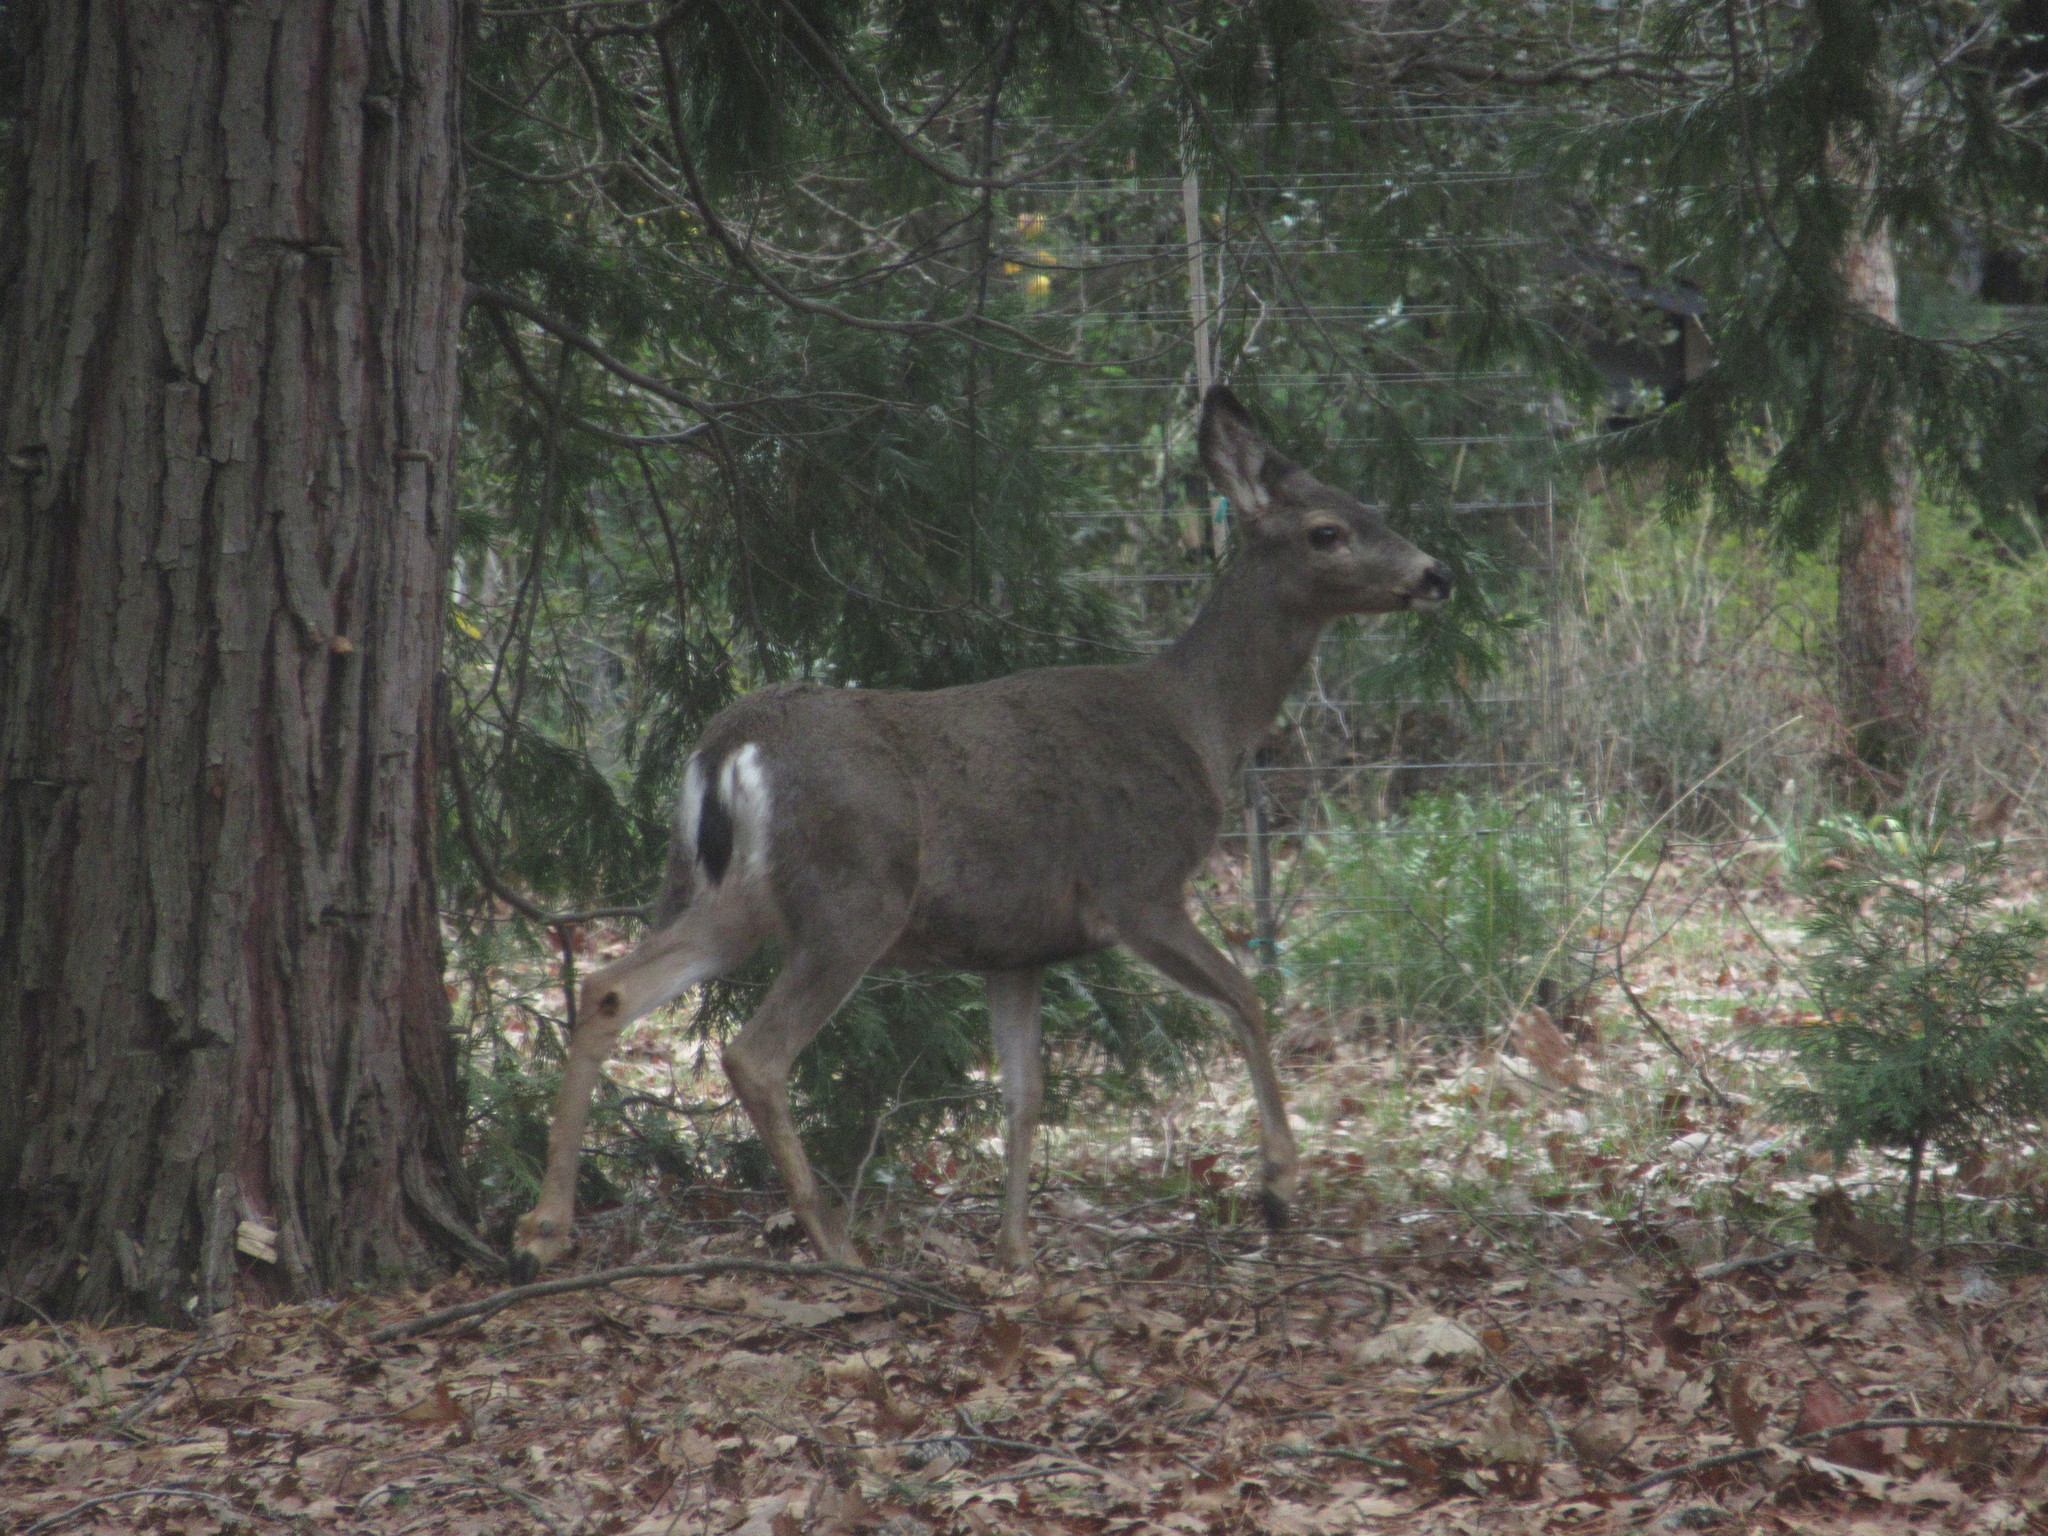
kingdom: Animalia
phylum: Chordata
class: Mammalia
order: Artiodactyla
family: Cervidae
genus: Odocoileus
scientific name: Odocoileus hemionus
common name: Mule deer
